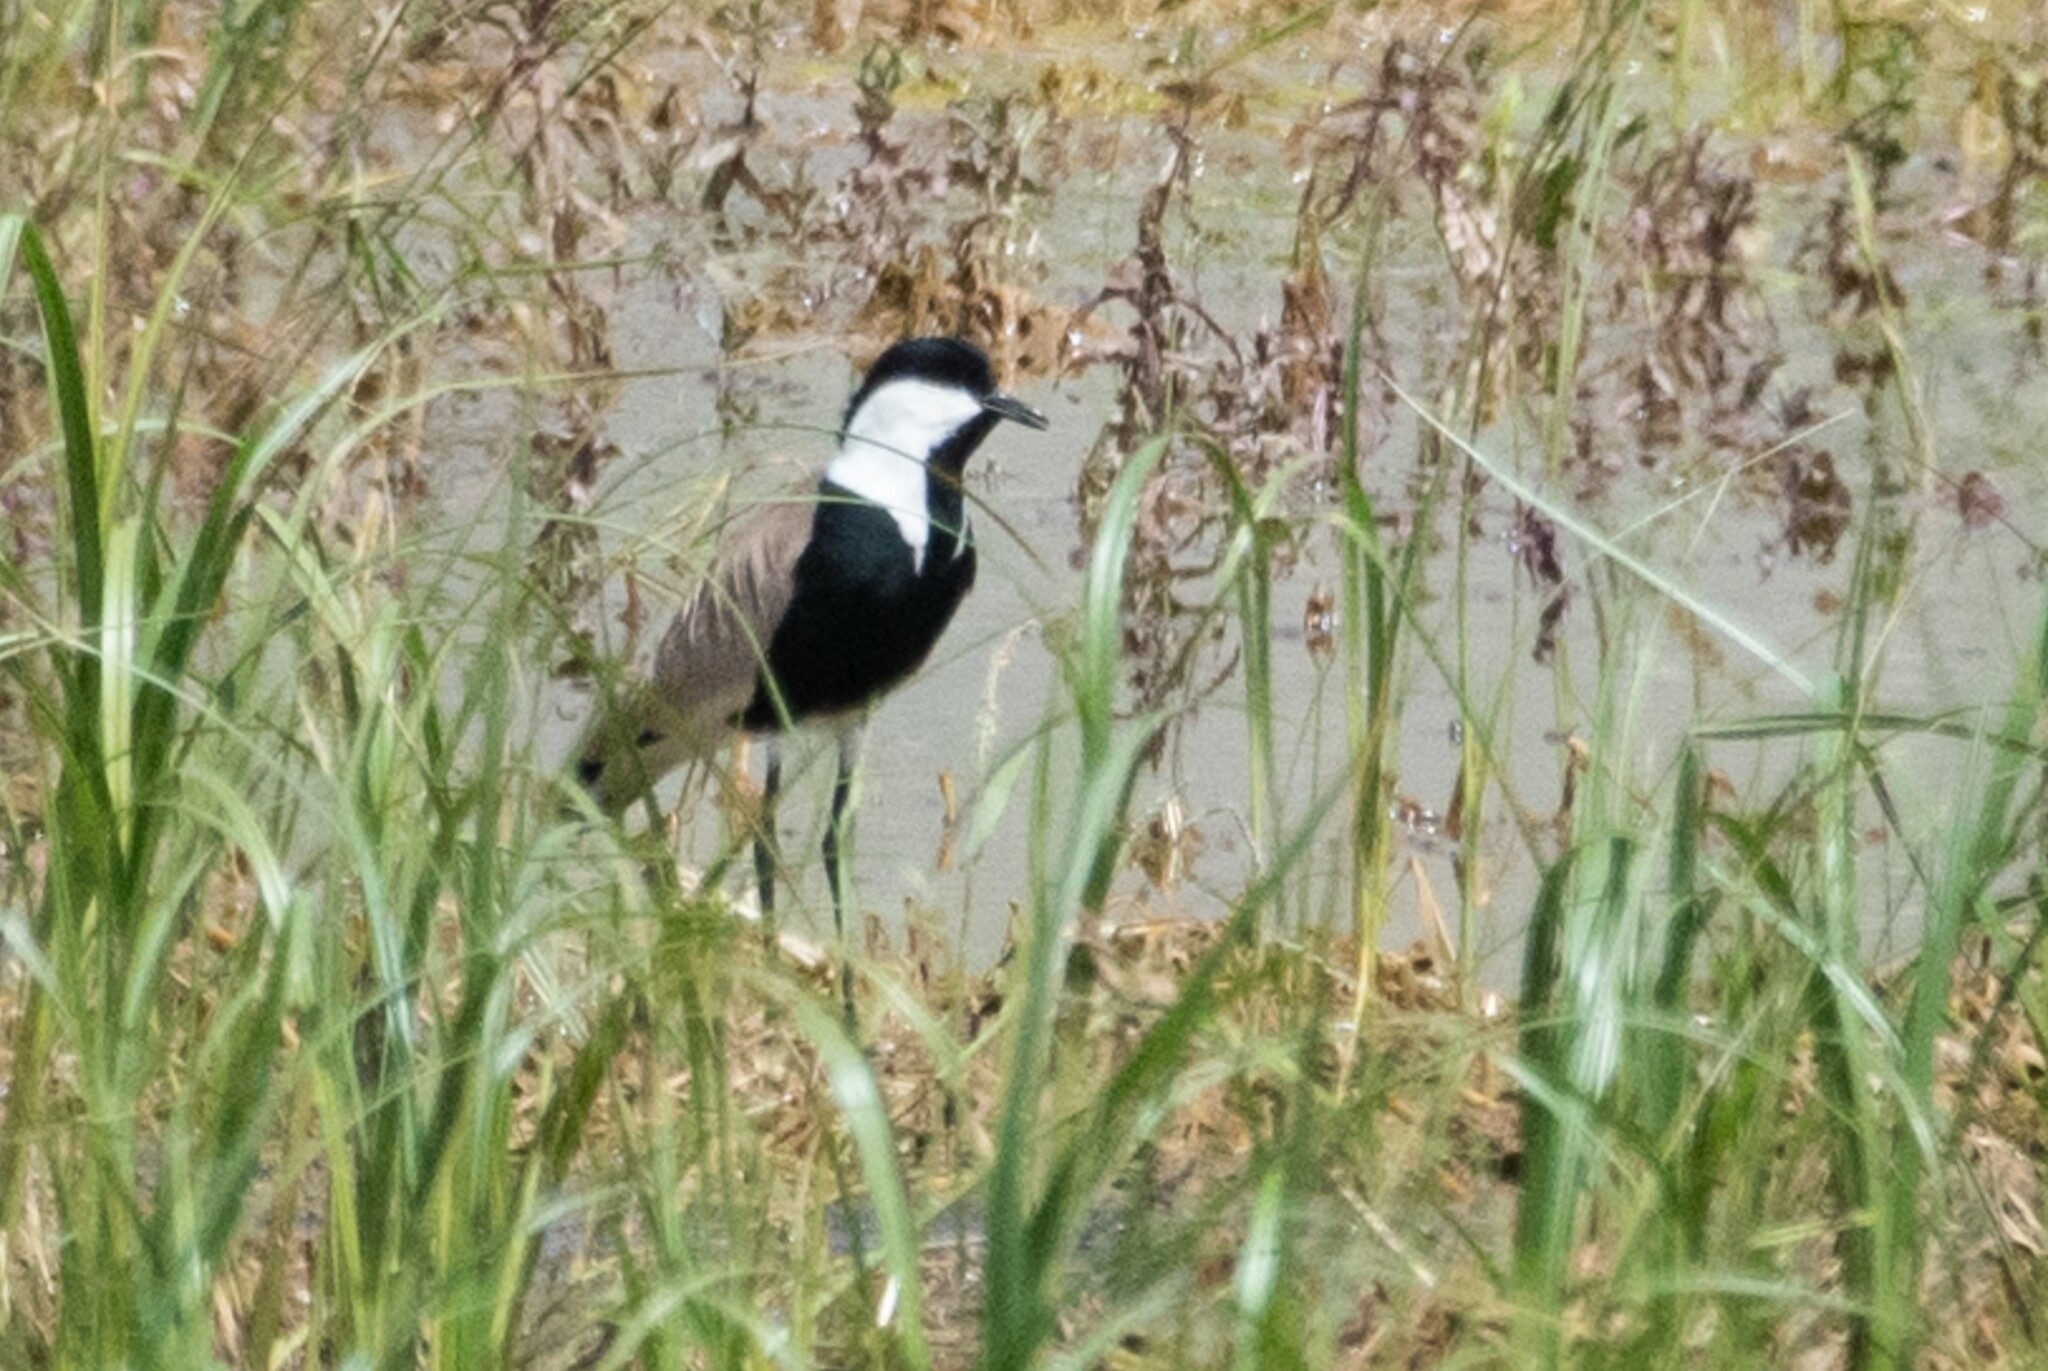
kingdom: Animalia
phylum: Chordata
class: Aves
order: Charadriiformes
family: Charadriidae
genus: Vanellus
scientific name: Vanellus spinosus
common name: Spur-winged lapwing
